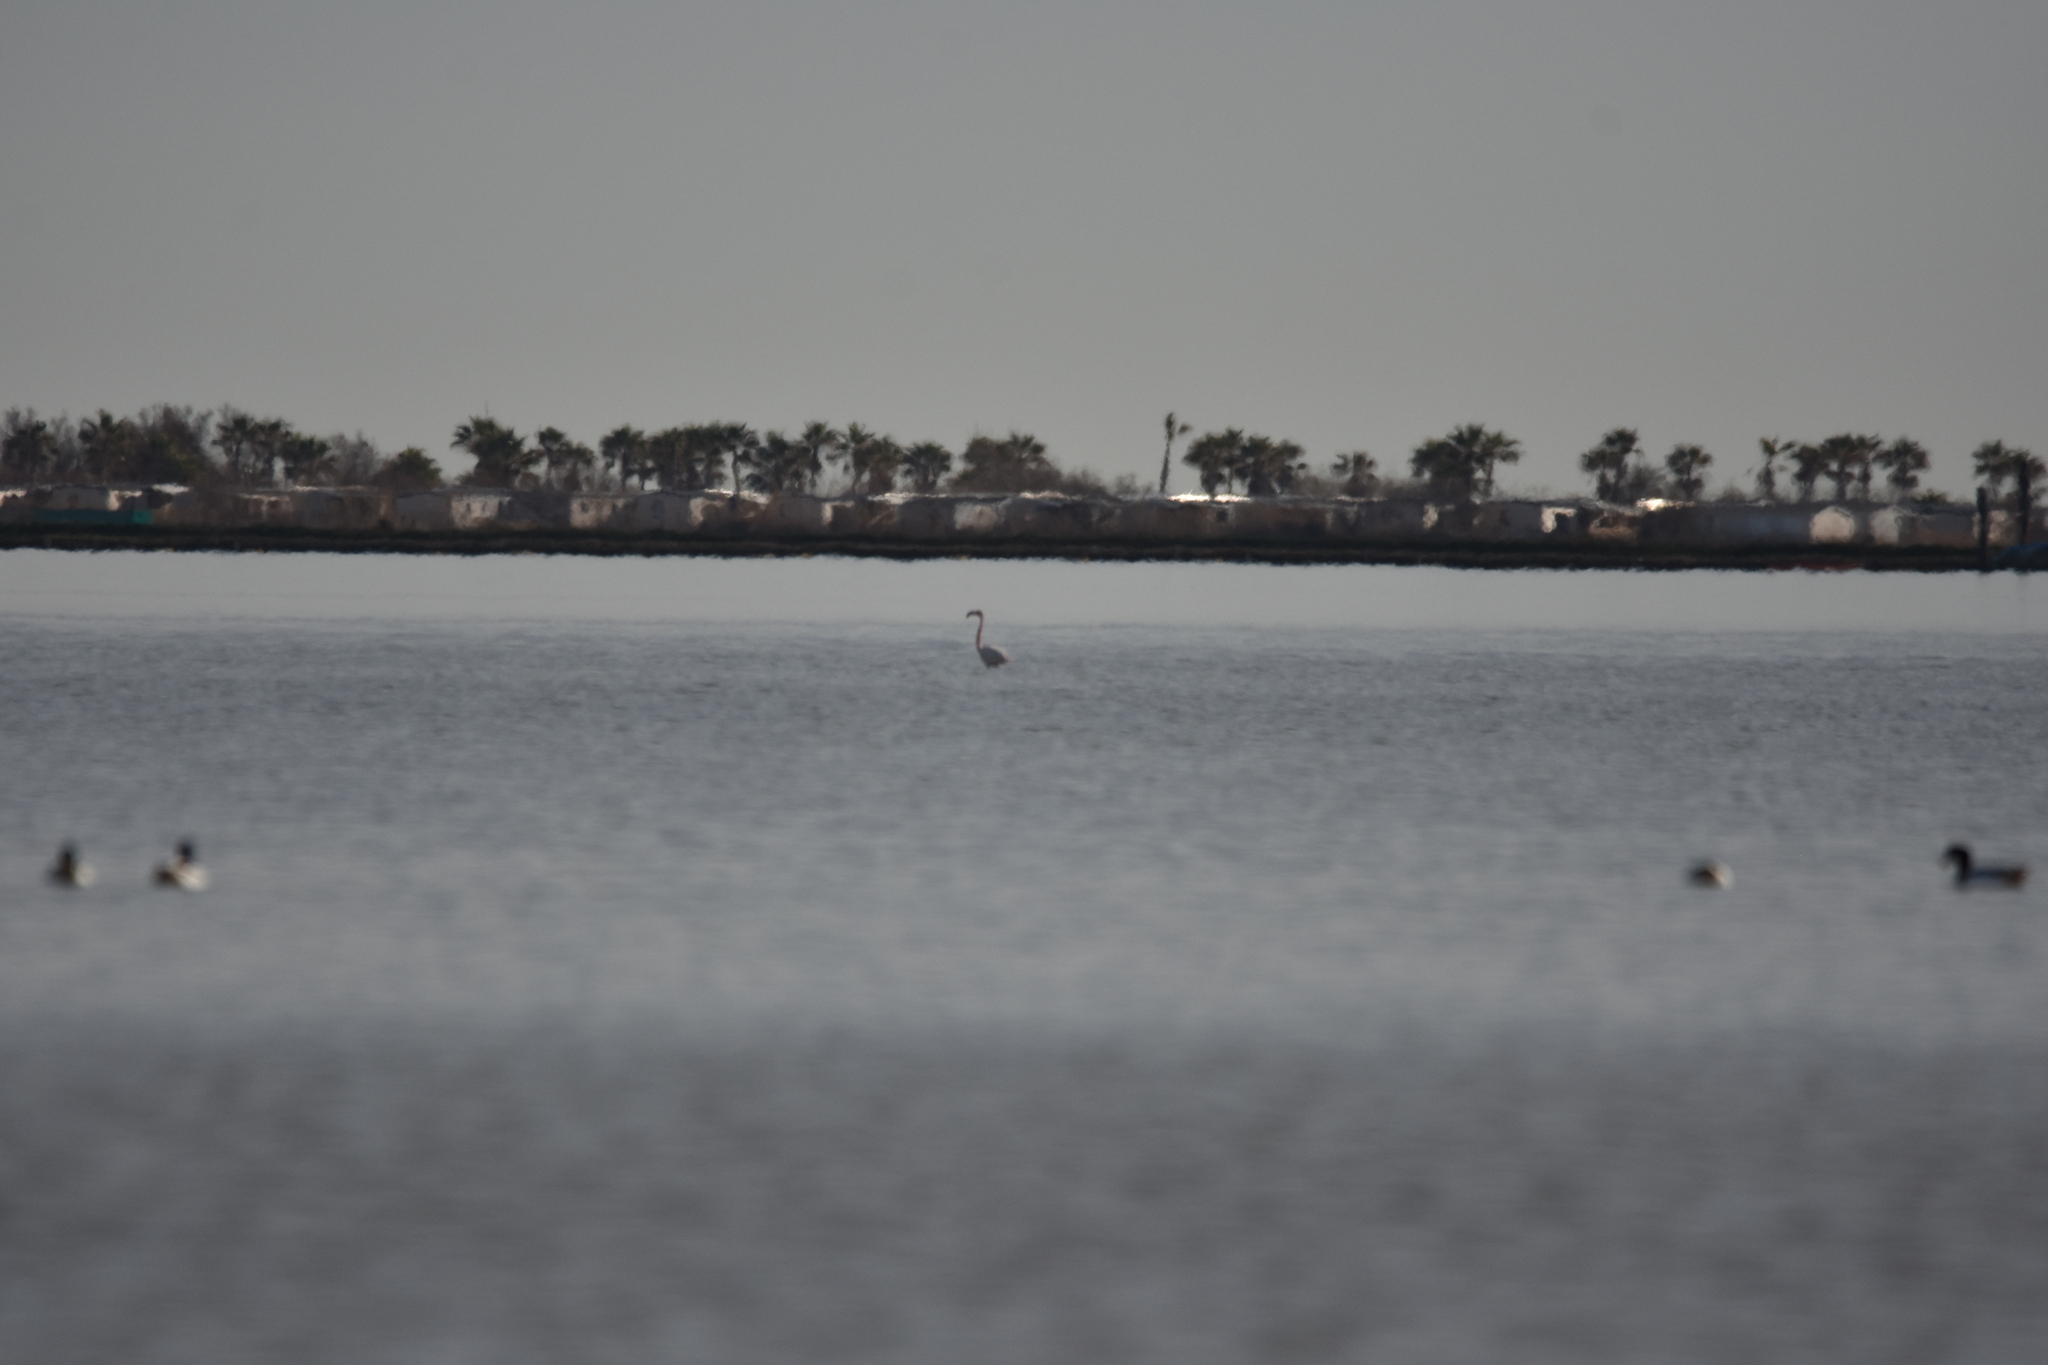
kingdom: Animalia
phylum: Chordata
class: Aves
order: Phoenicopteriformes
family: Phoenicopteridae
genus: Phoenicopterus
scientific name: Phoenicopterus roseus
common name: Greater flamingo
